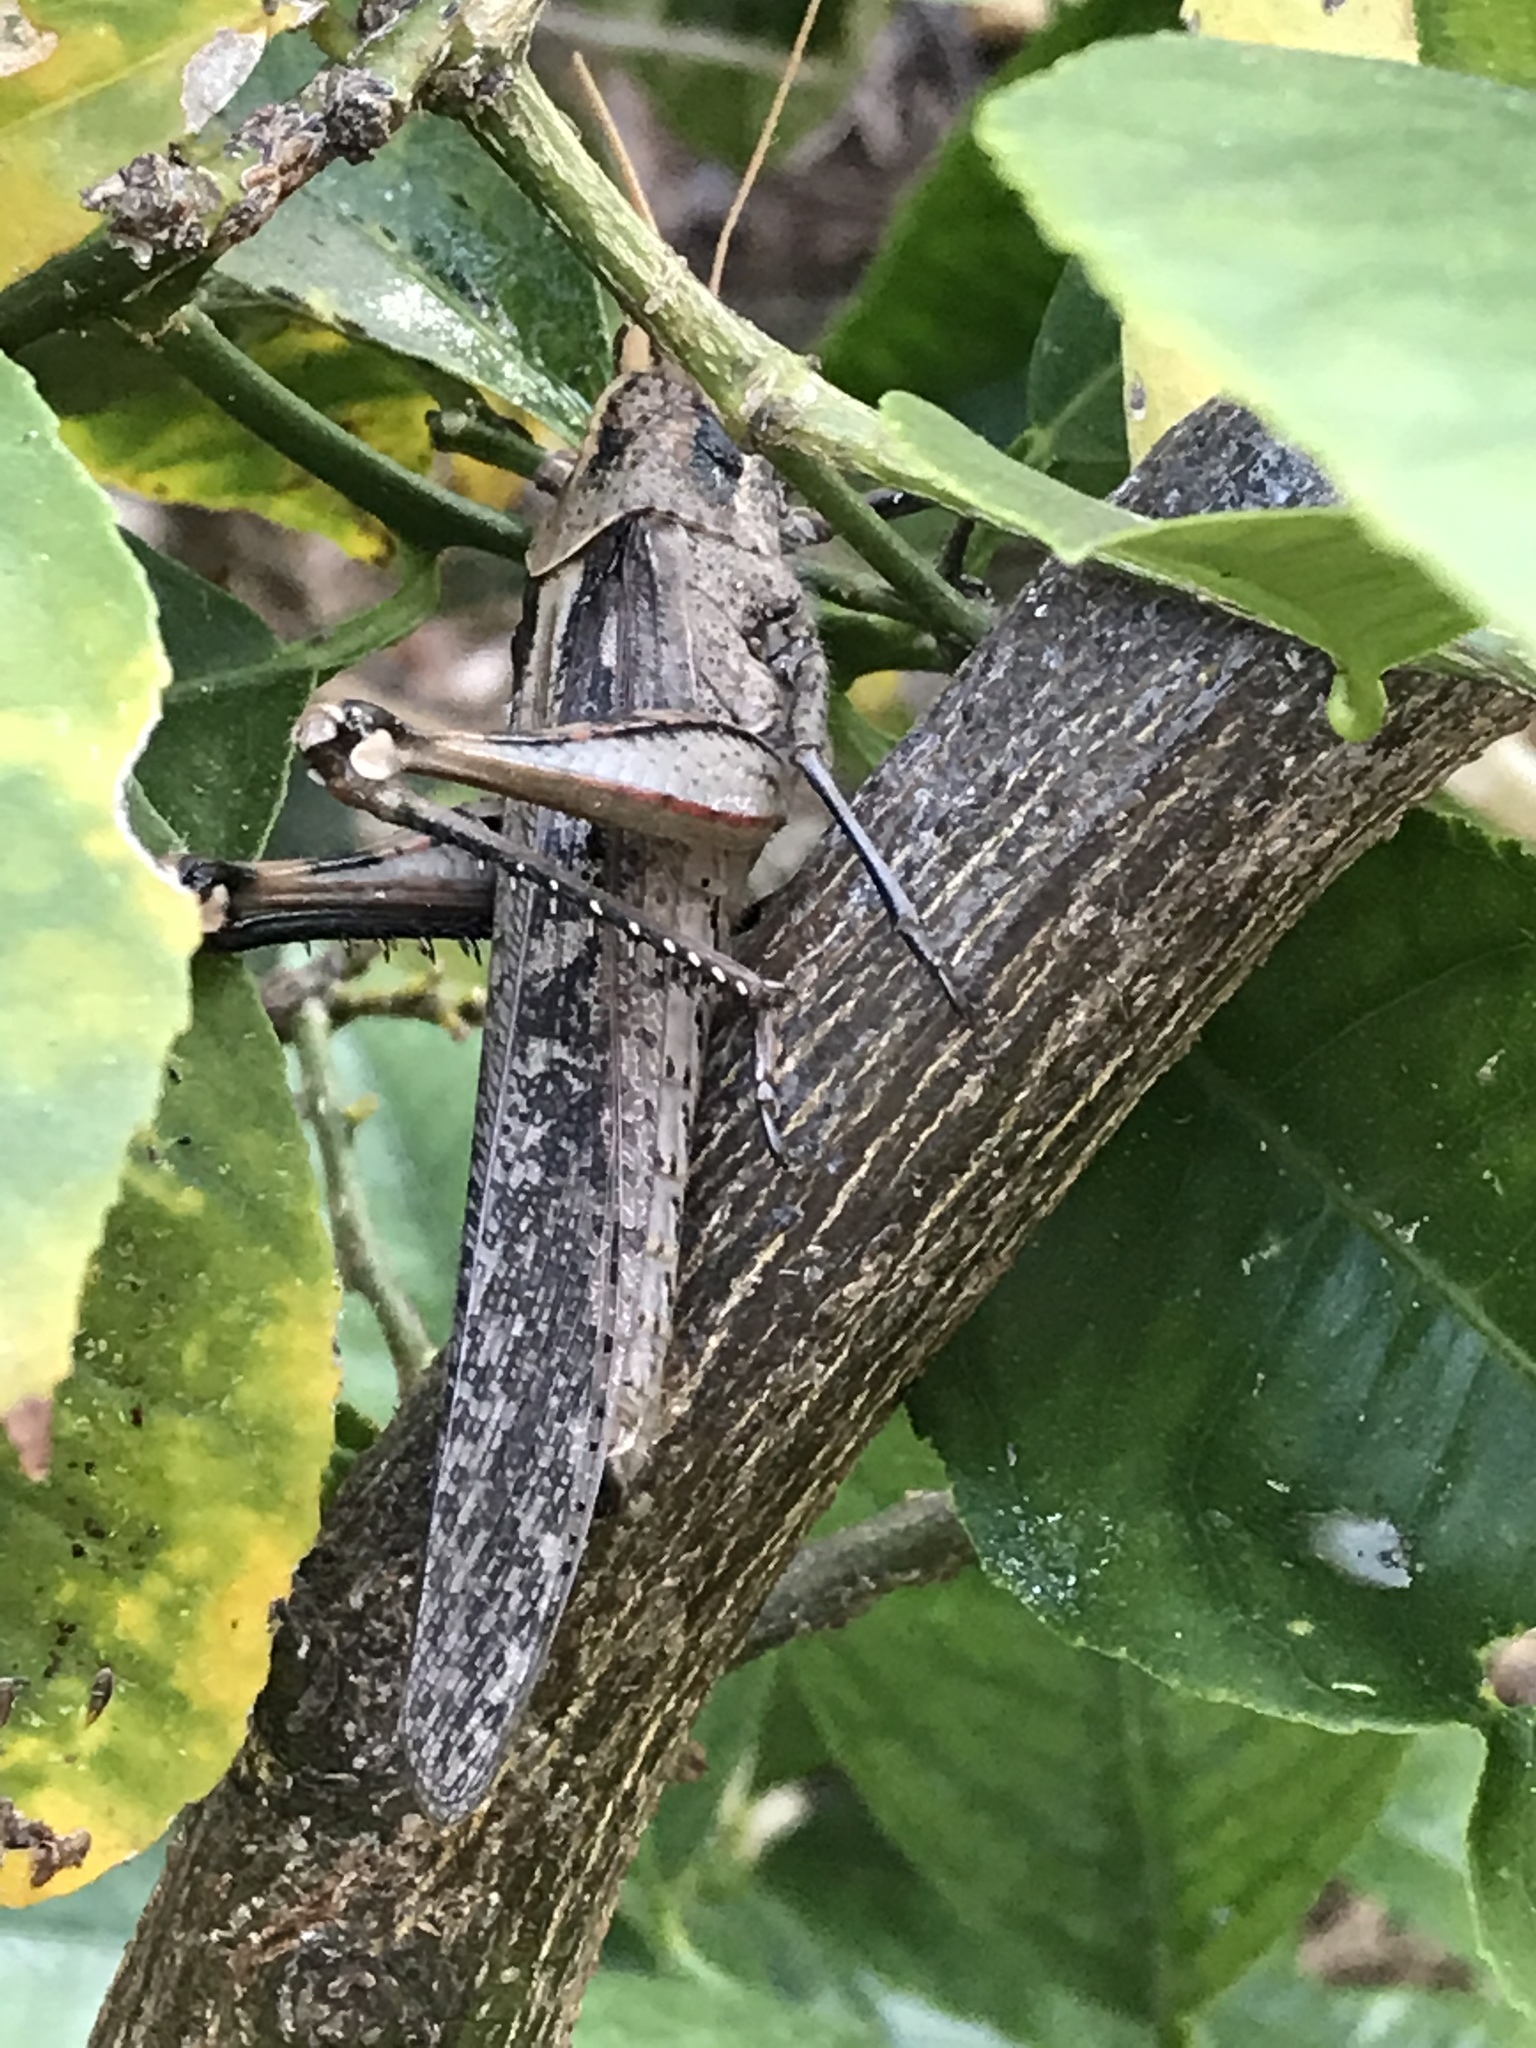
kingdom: Animalia
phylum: Arthropoda
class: Insecta
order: Orthoptera
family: Acrididae
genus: Schistocerca
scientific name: Schistocerca nitens
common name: Vagrant grasshopper
